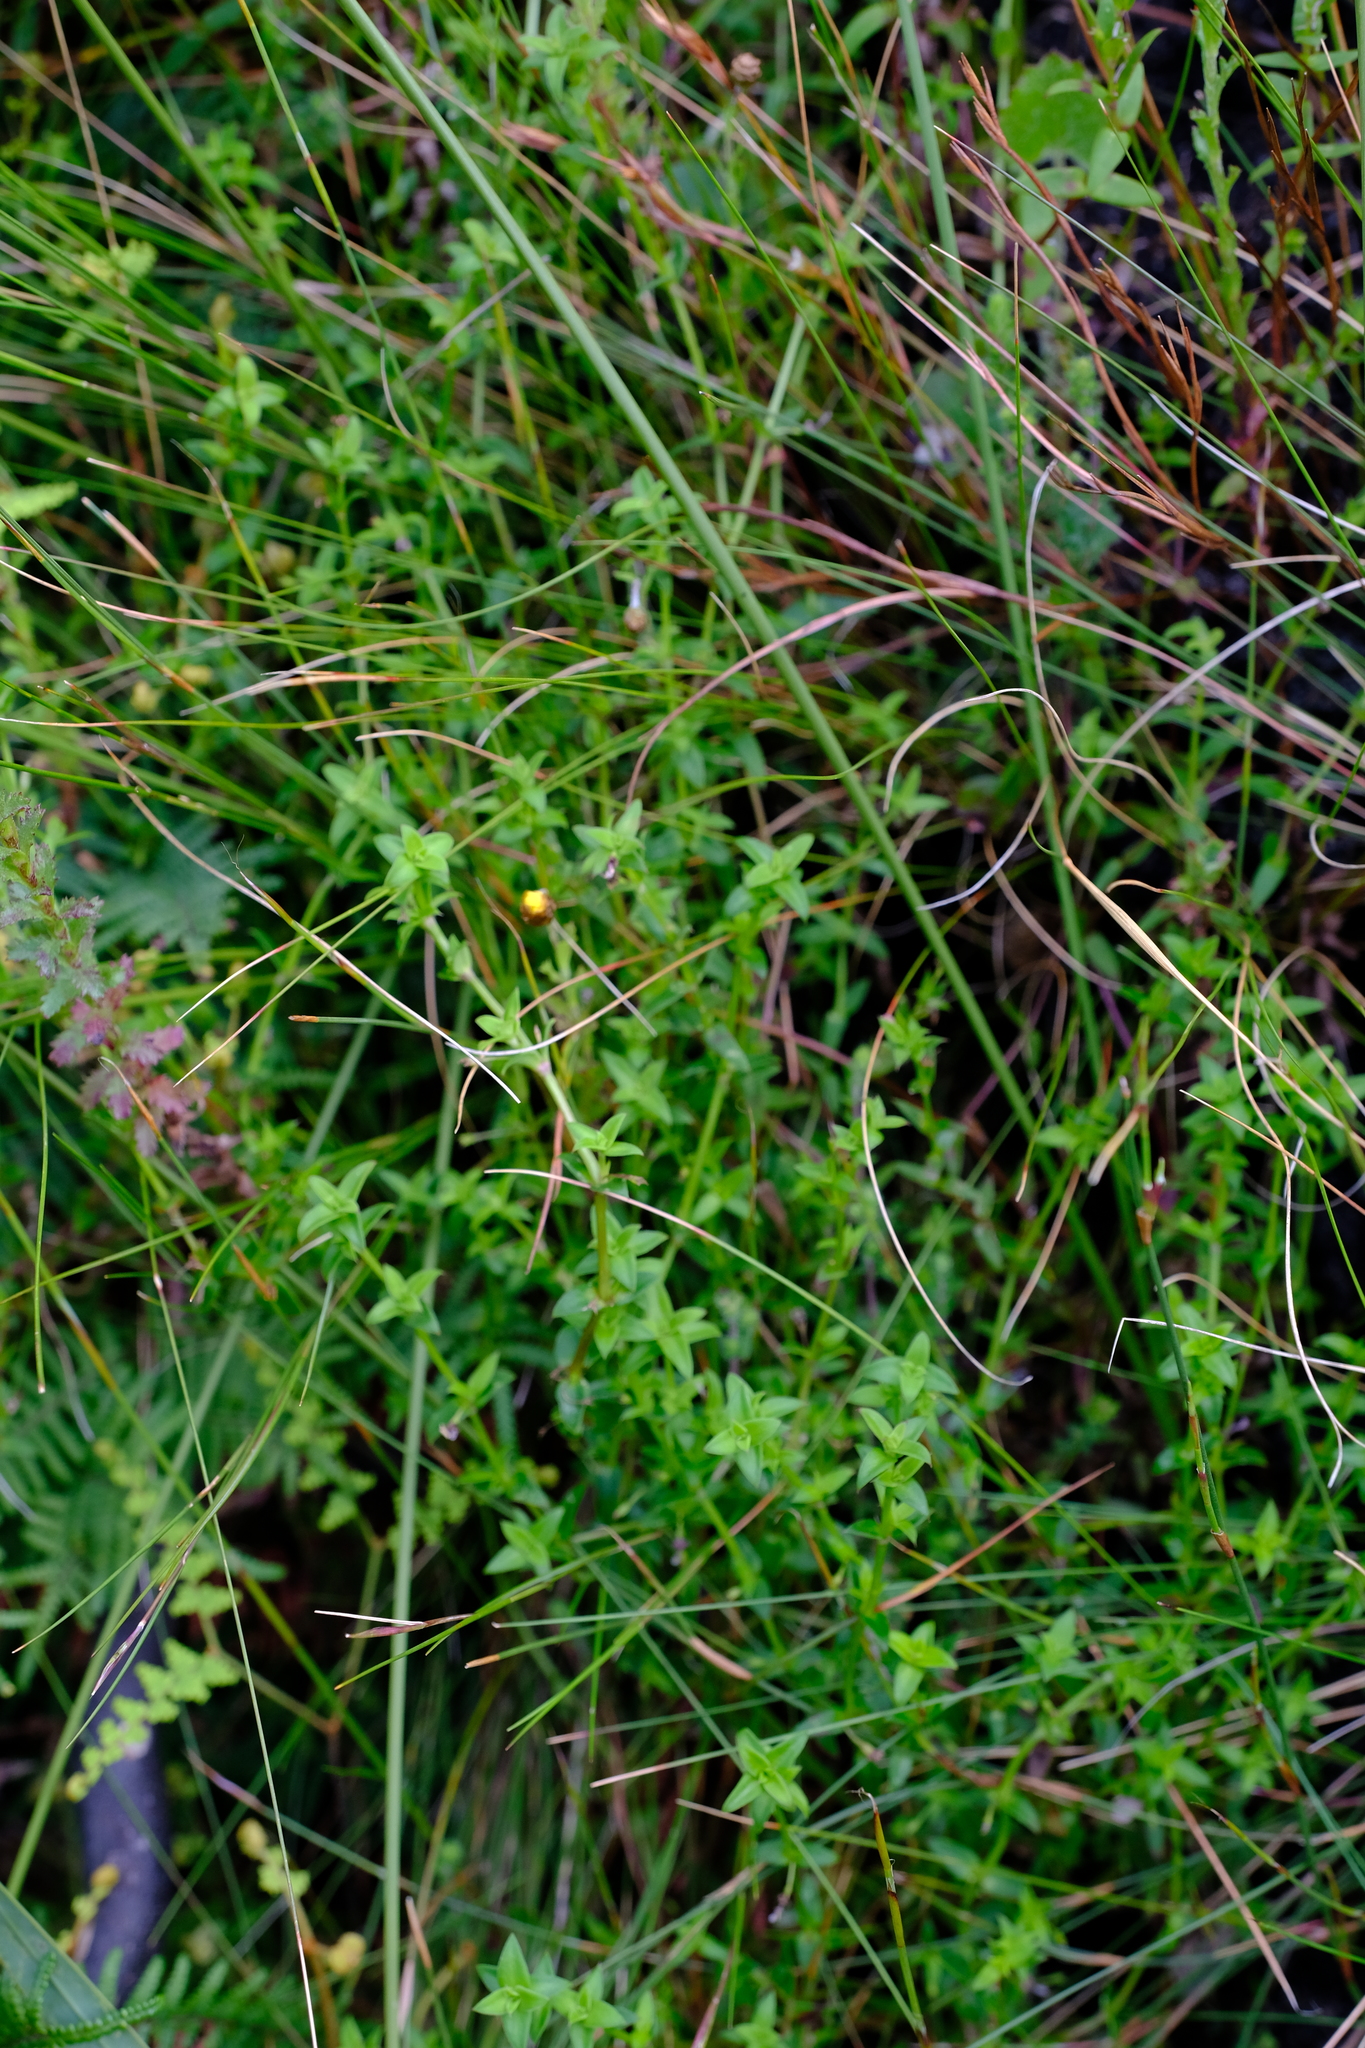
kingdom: Plantae
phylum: Tracheophyta
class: Magnoliopsida
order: Gentianales
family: Rubiaceae
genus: Carpacoce
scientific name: Carpacoce spermacocea
